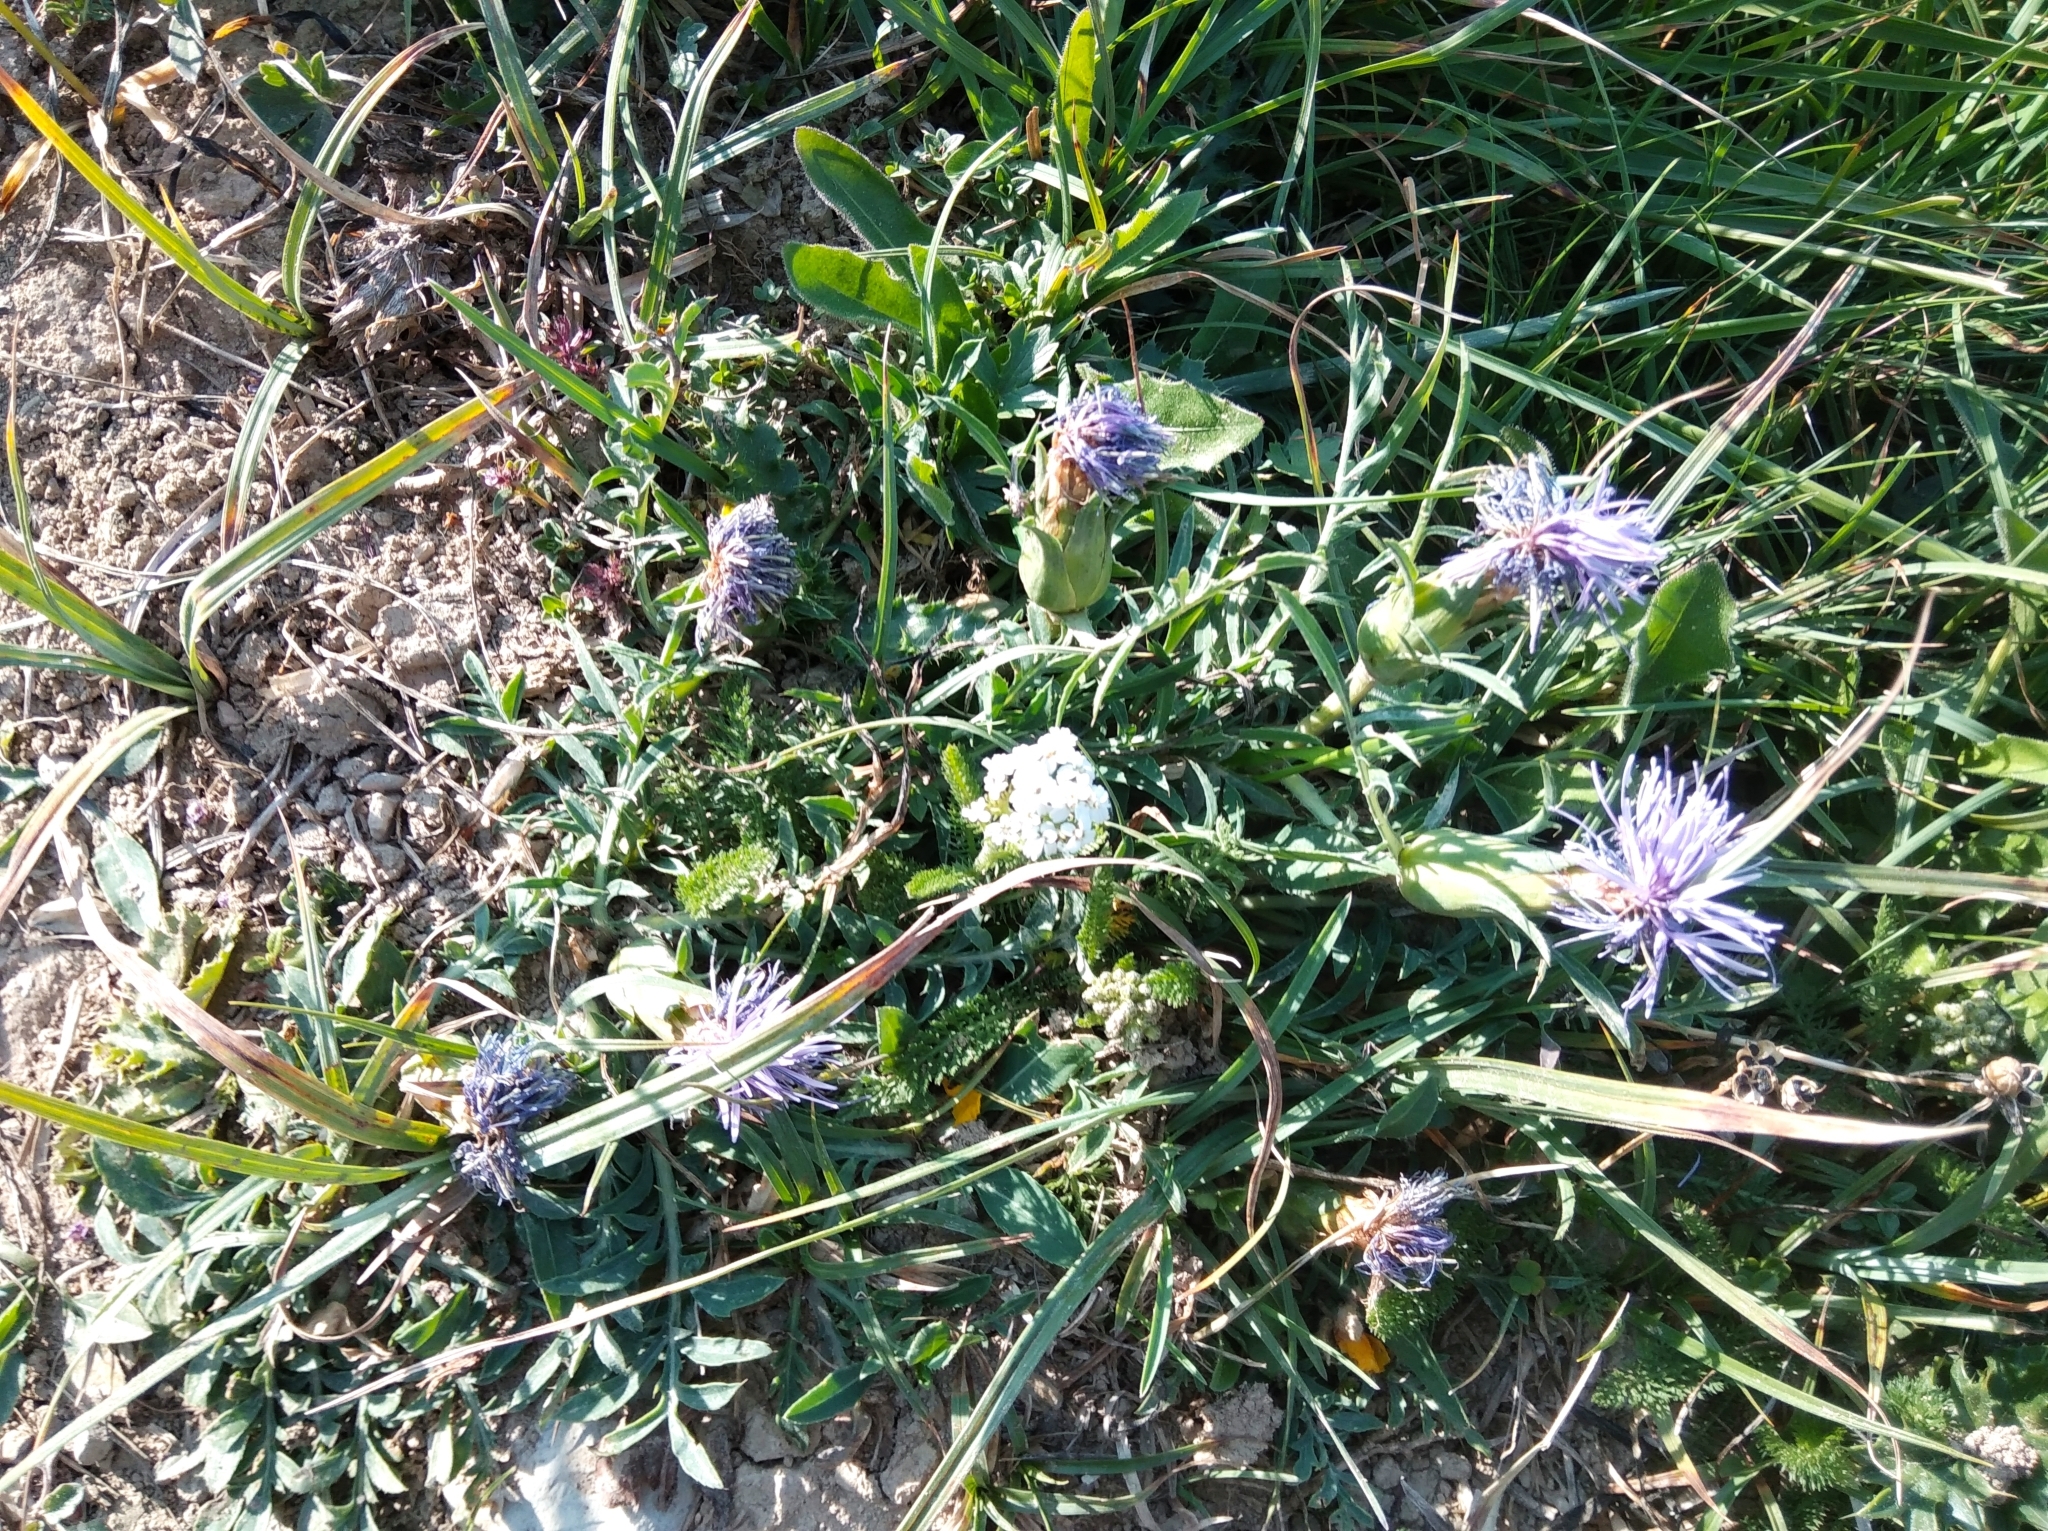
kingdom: Plantae
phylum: Tracheophyta
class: Magnoliopsida
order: Asterales
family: Asteraceae
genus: Carduncellus
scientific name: Carduncellus mitissimus
